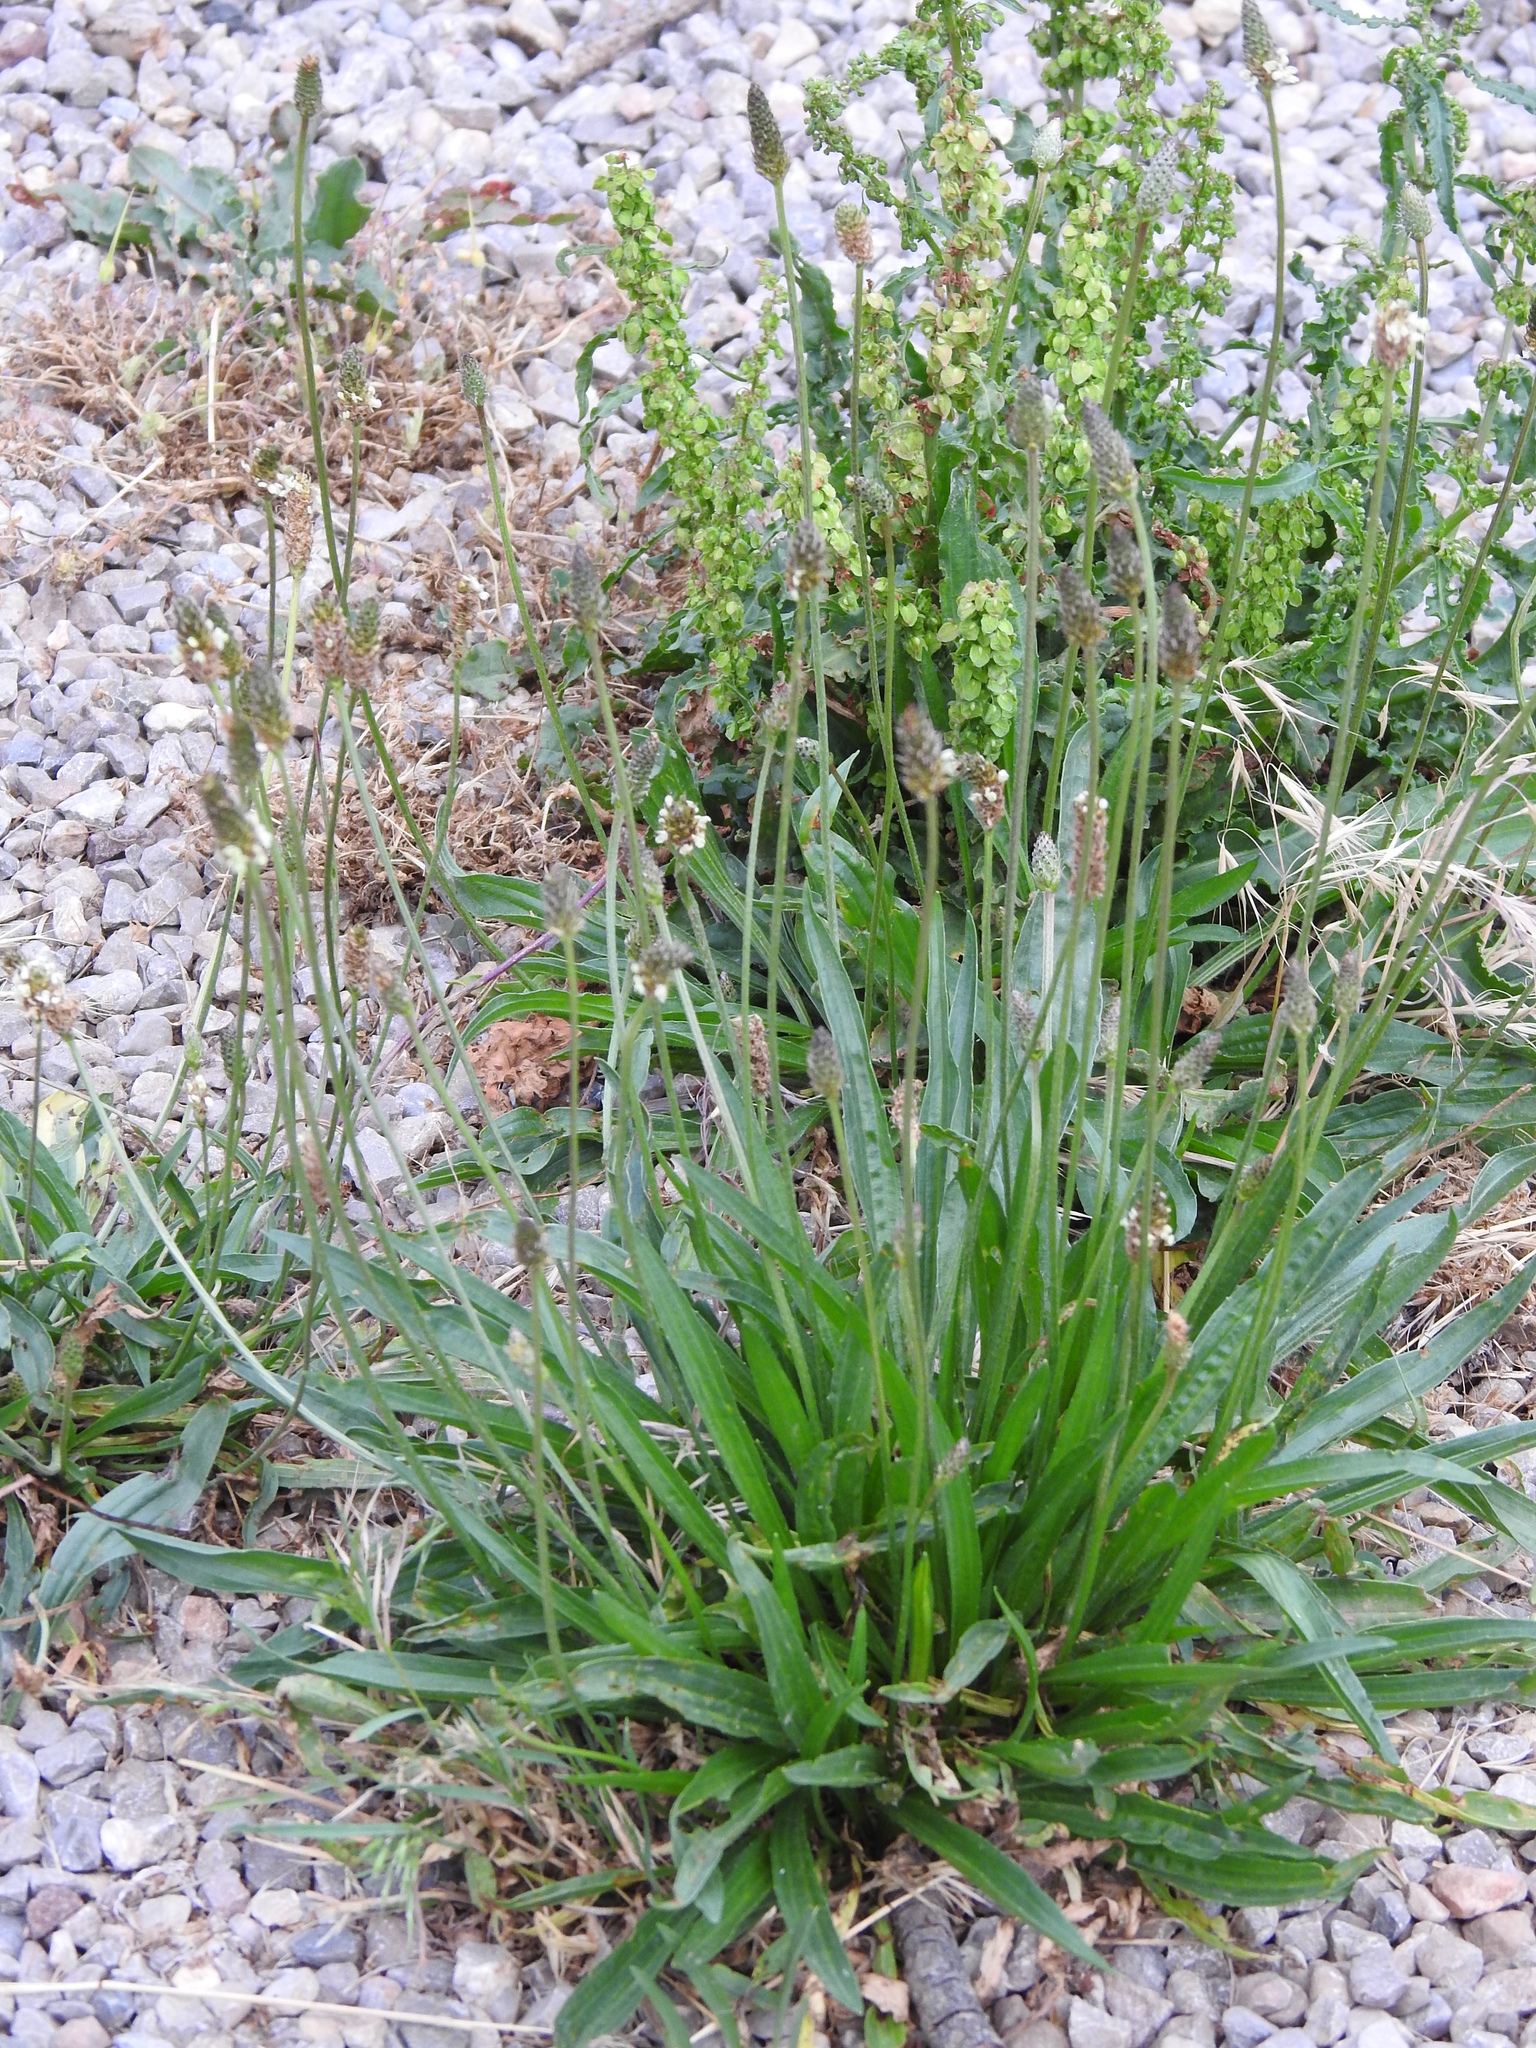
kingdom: Plantae
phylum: Tracheophyta
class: Magnoliopsida
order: Lamiales
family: Plantaginaceae
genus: Plantago
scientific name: Plantago lanceolata
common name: Ribwort plantain
